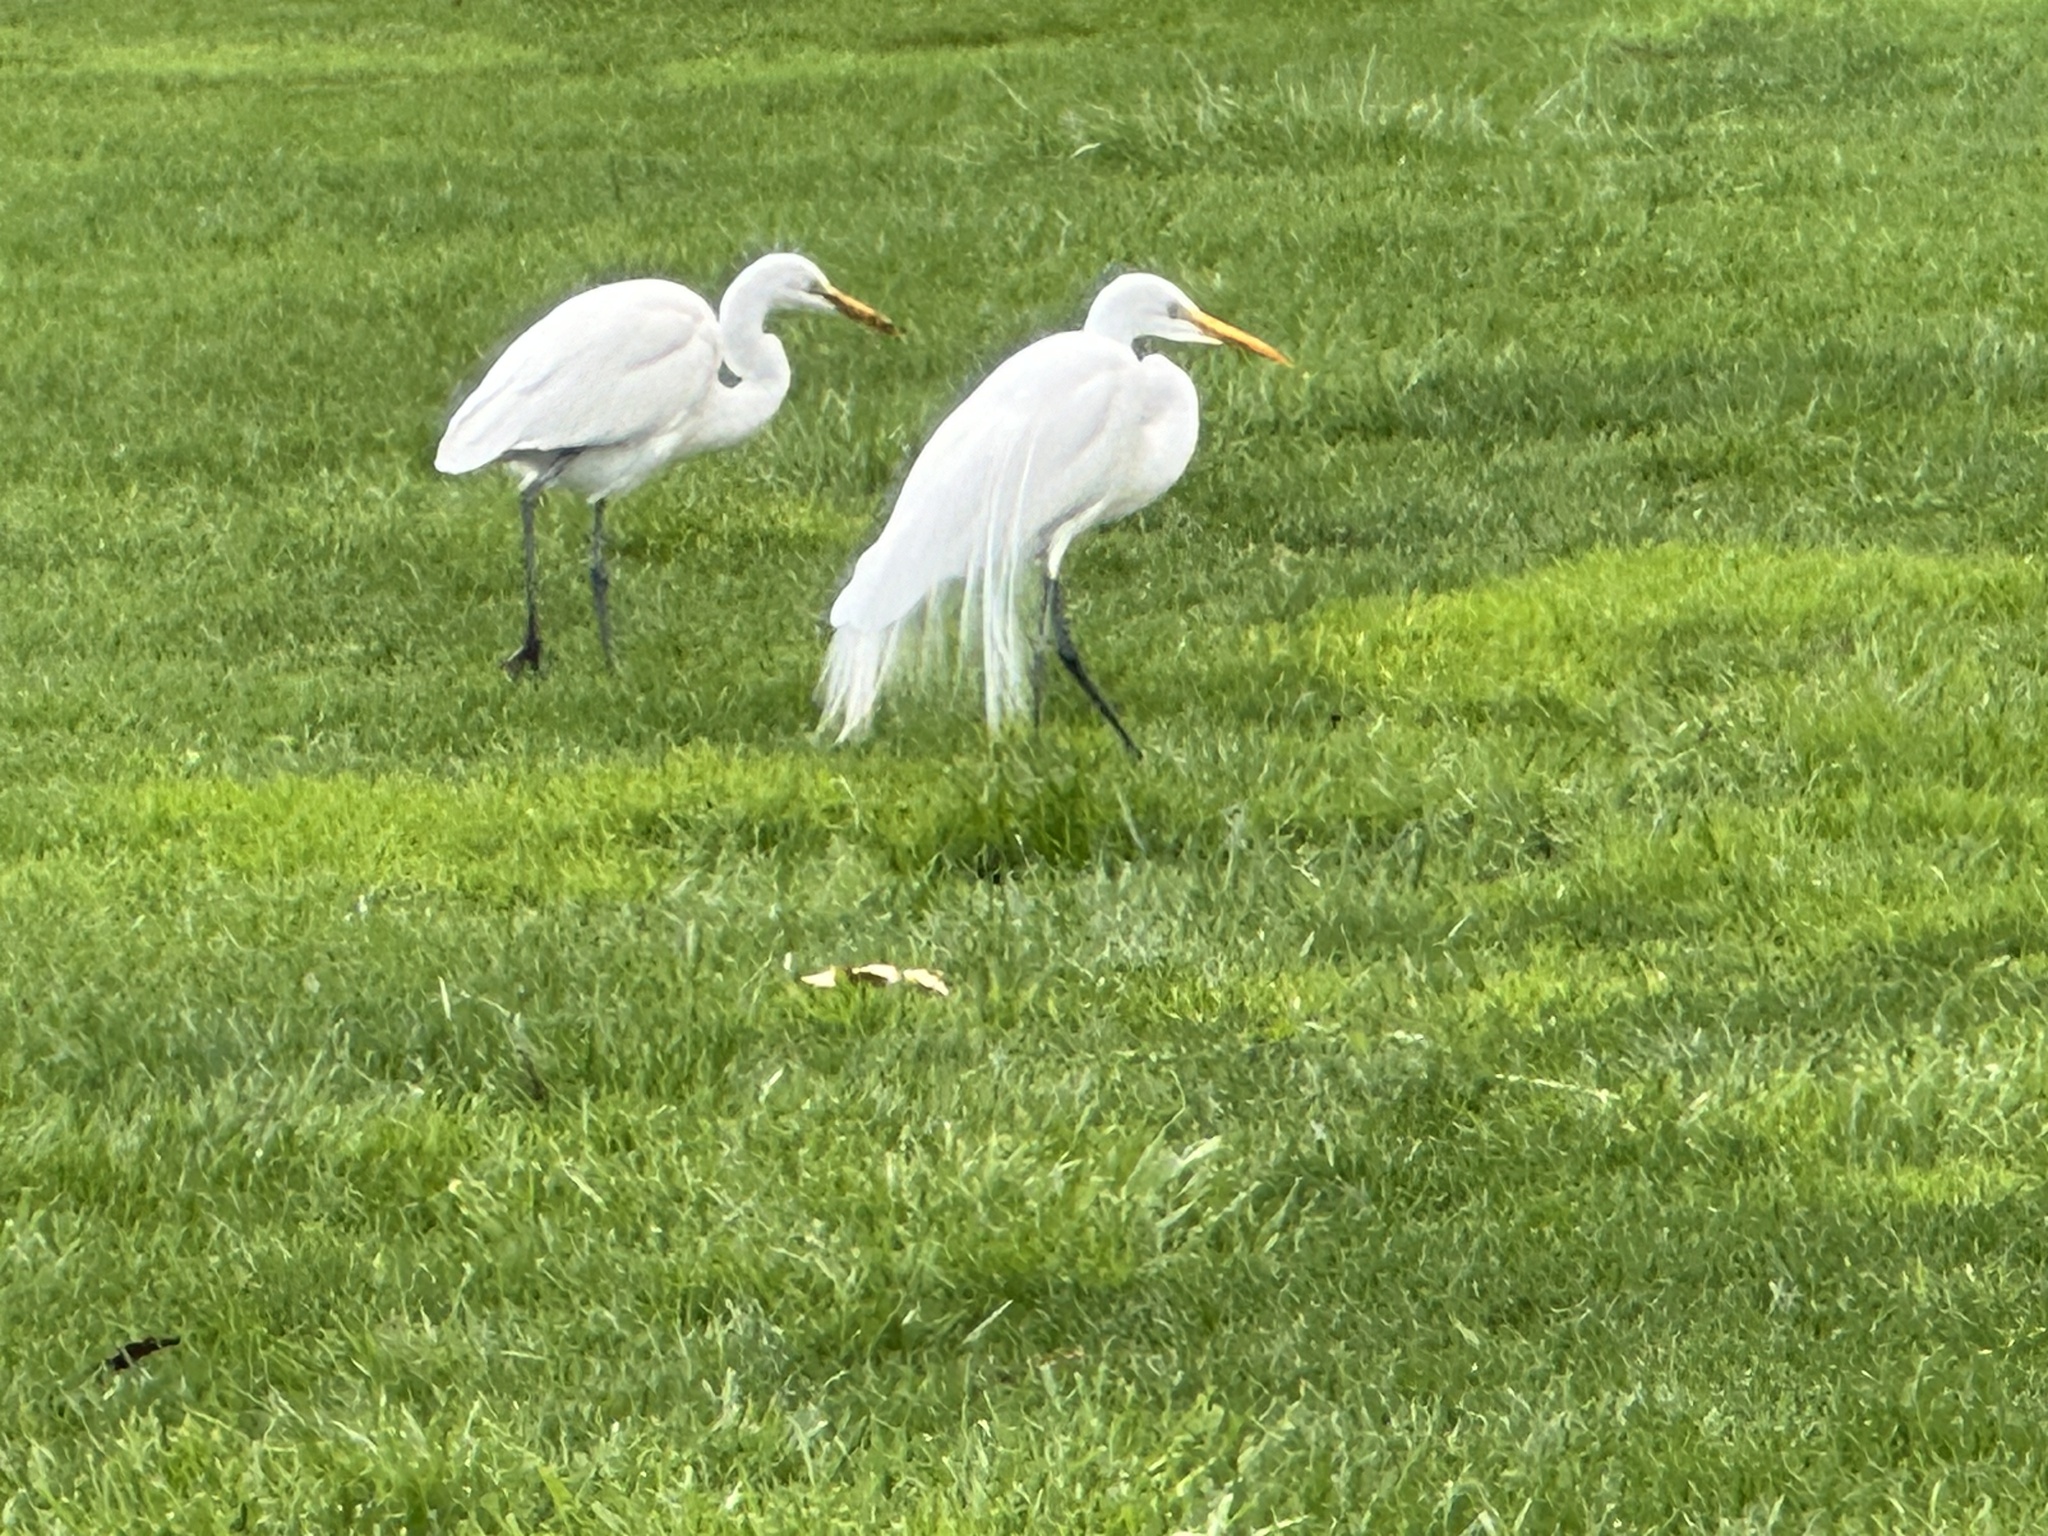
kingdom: Animalia
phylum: Chordata
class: Aves
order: Pelecaniformes
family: Ardeidae
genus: Ardea
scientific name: Ardea alba
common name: Great egret
